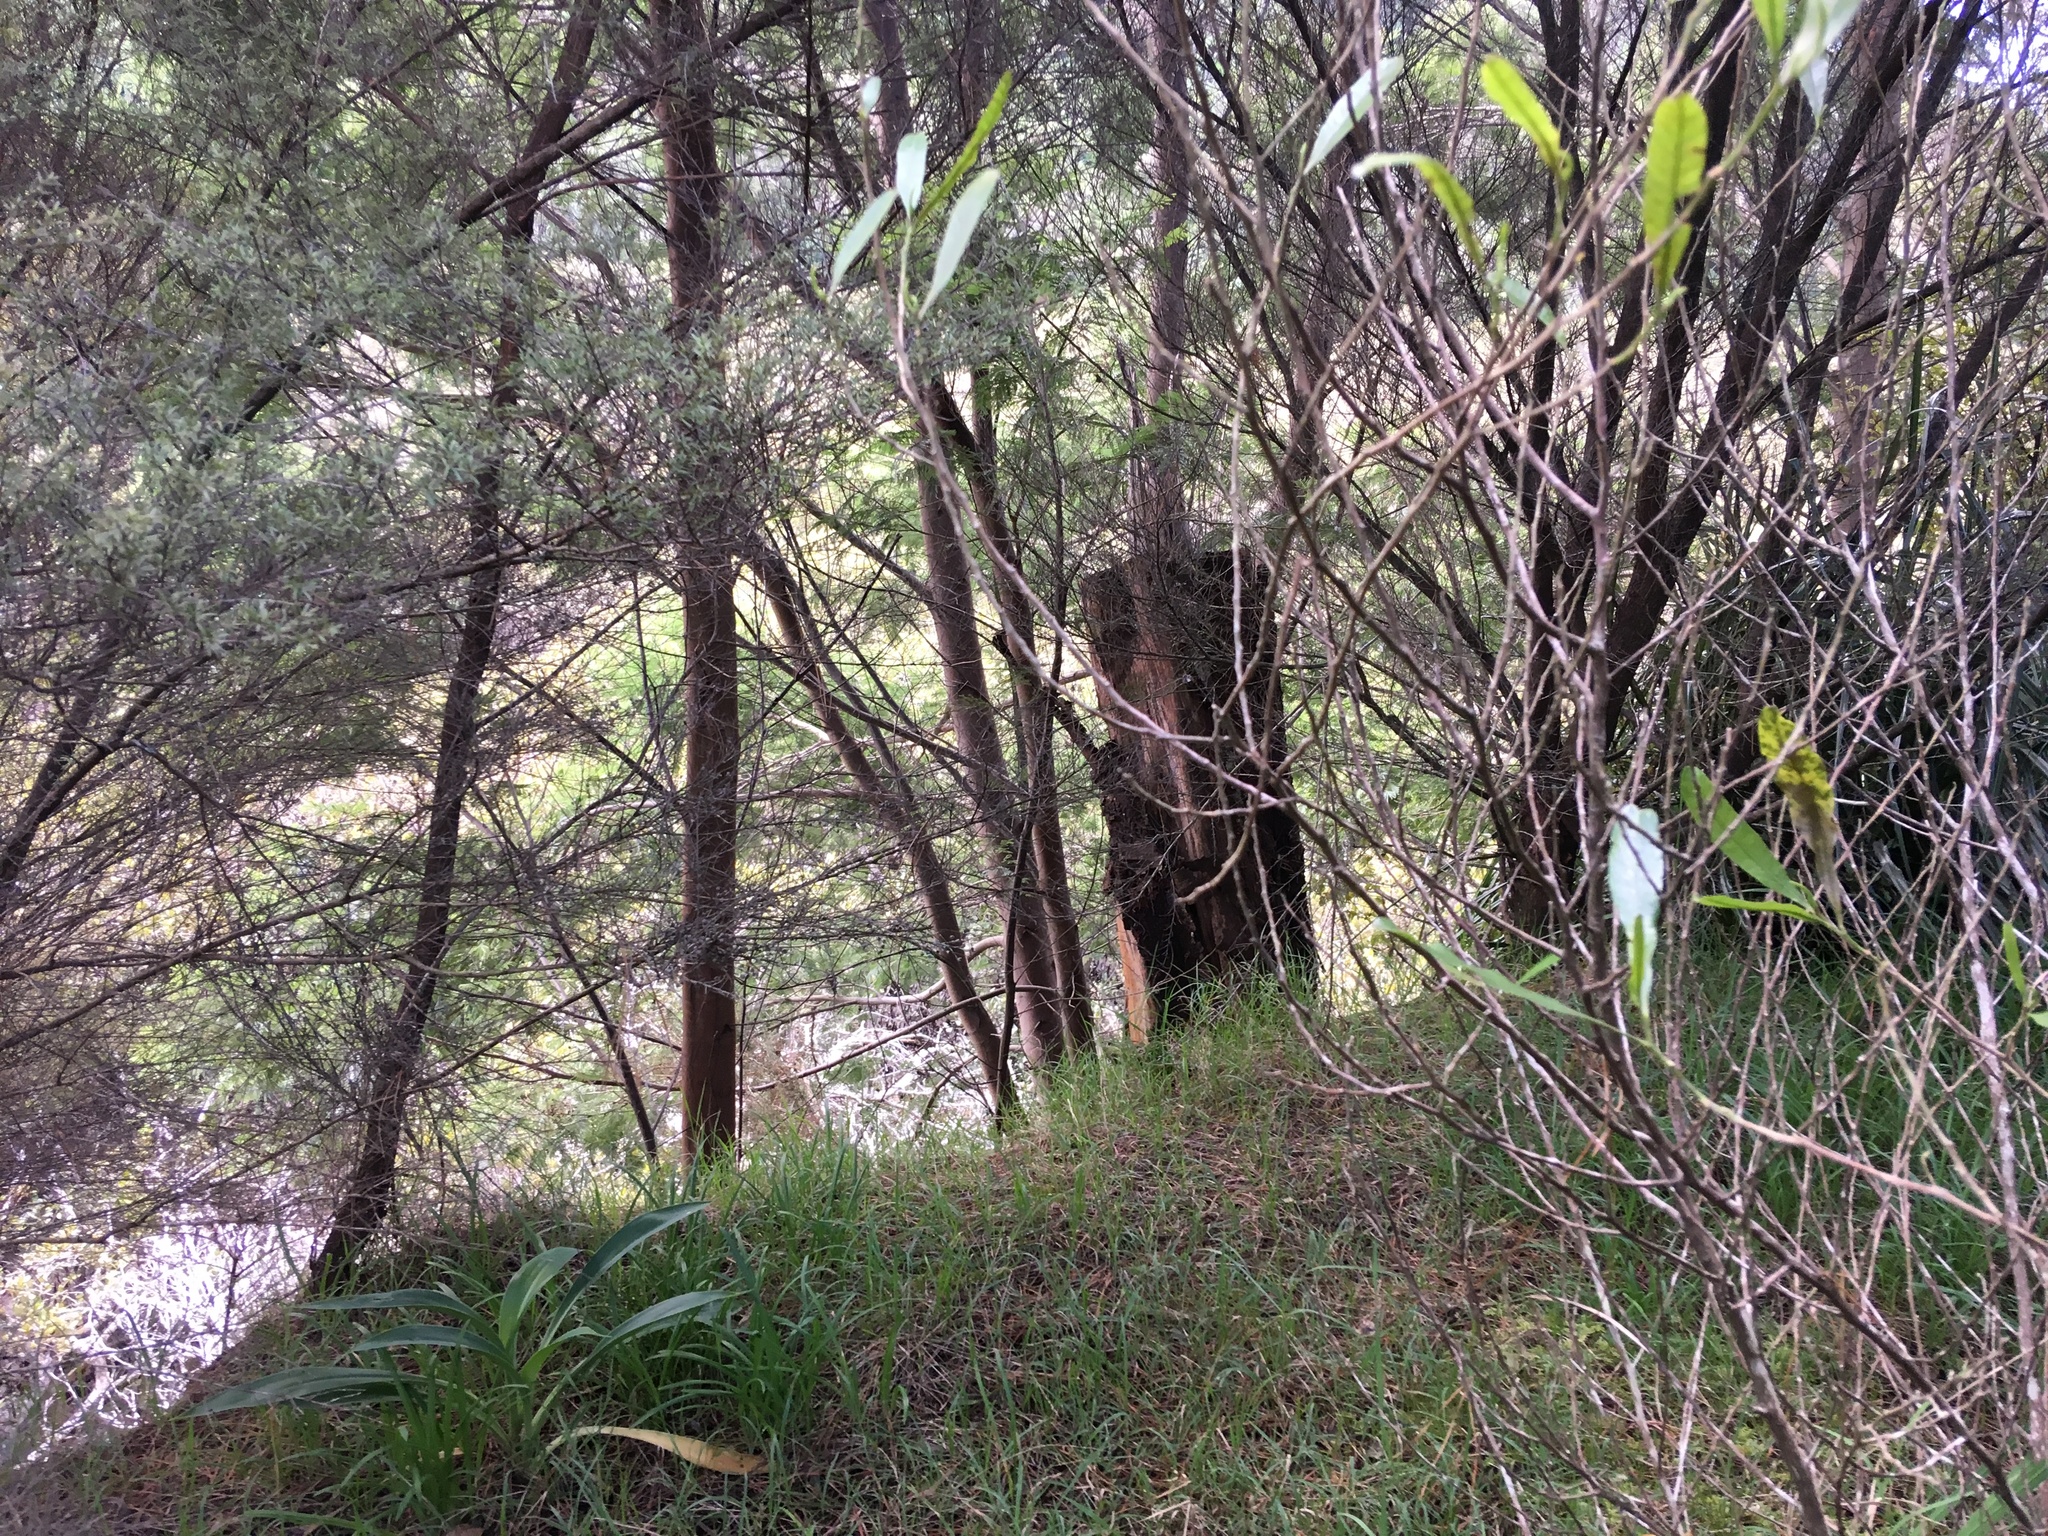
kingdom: Plantae
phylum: Tracheophyta
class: Magnoliopsida
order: Fabales
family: Fabaceae
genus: Paraserianthes
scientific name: Paraserianthes lophantha
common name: Plume albizia
